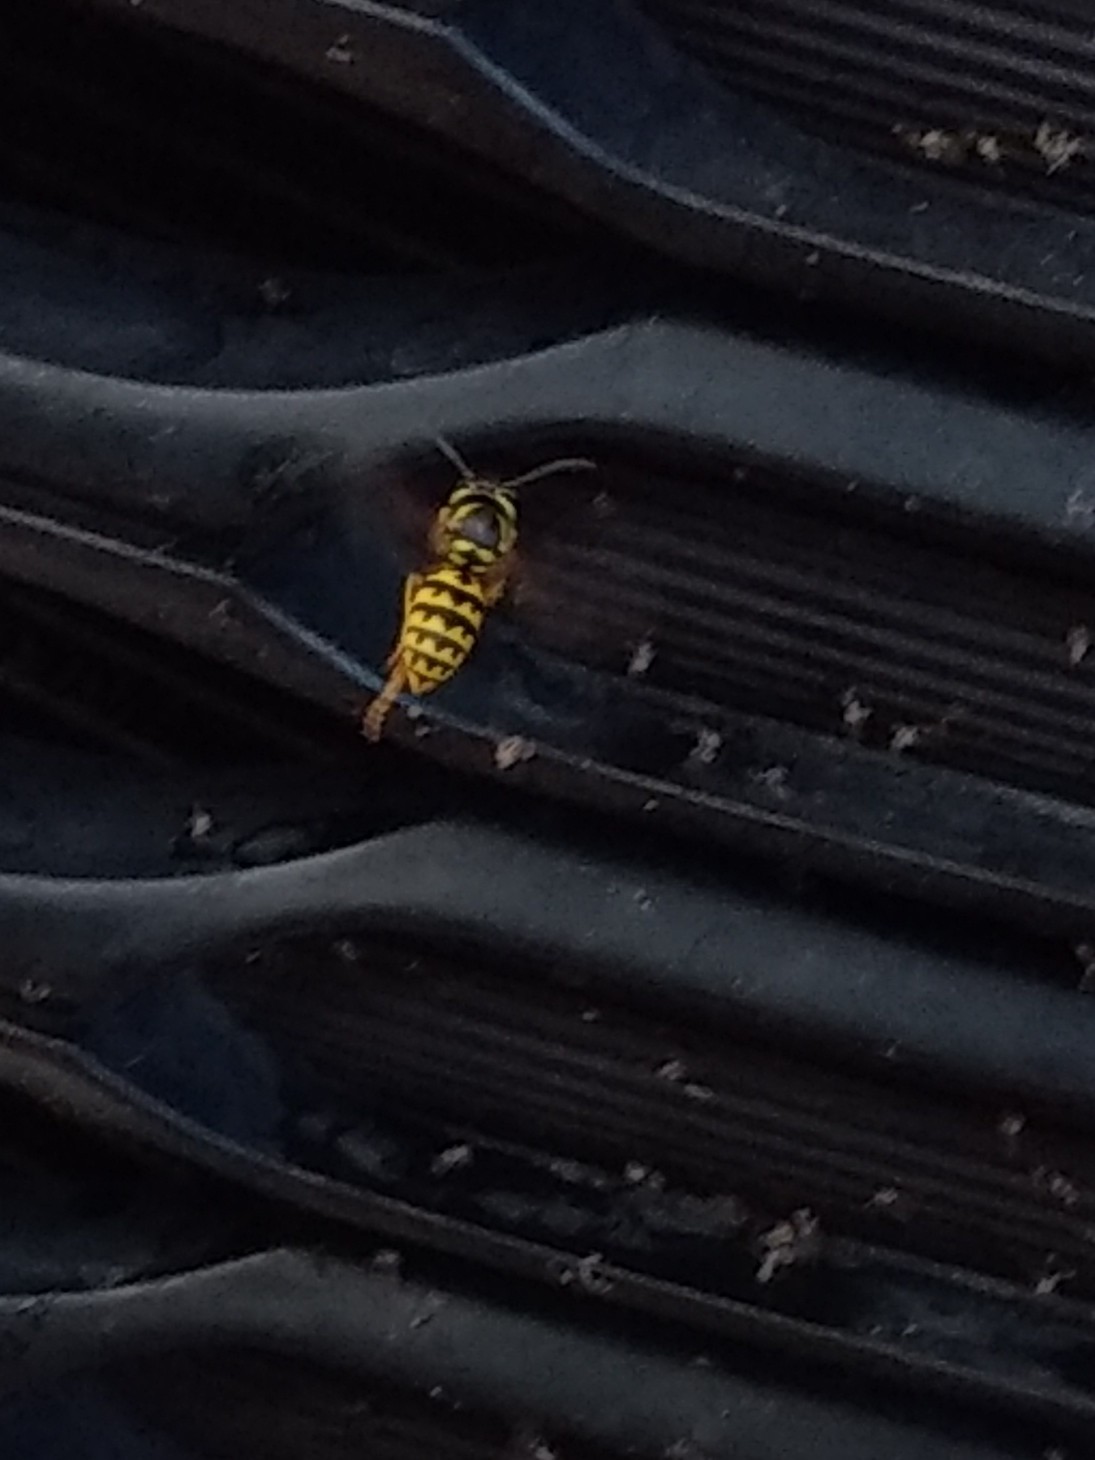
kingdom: Animalia
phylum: Arthropoda
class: Insecta
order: Hymenoptera
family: Vespidae
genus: Vespula
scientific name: Vespula pensylvanica
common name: Western yellowjacket
